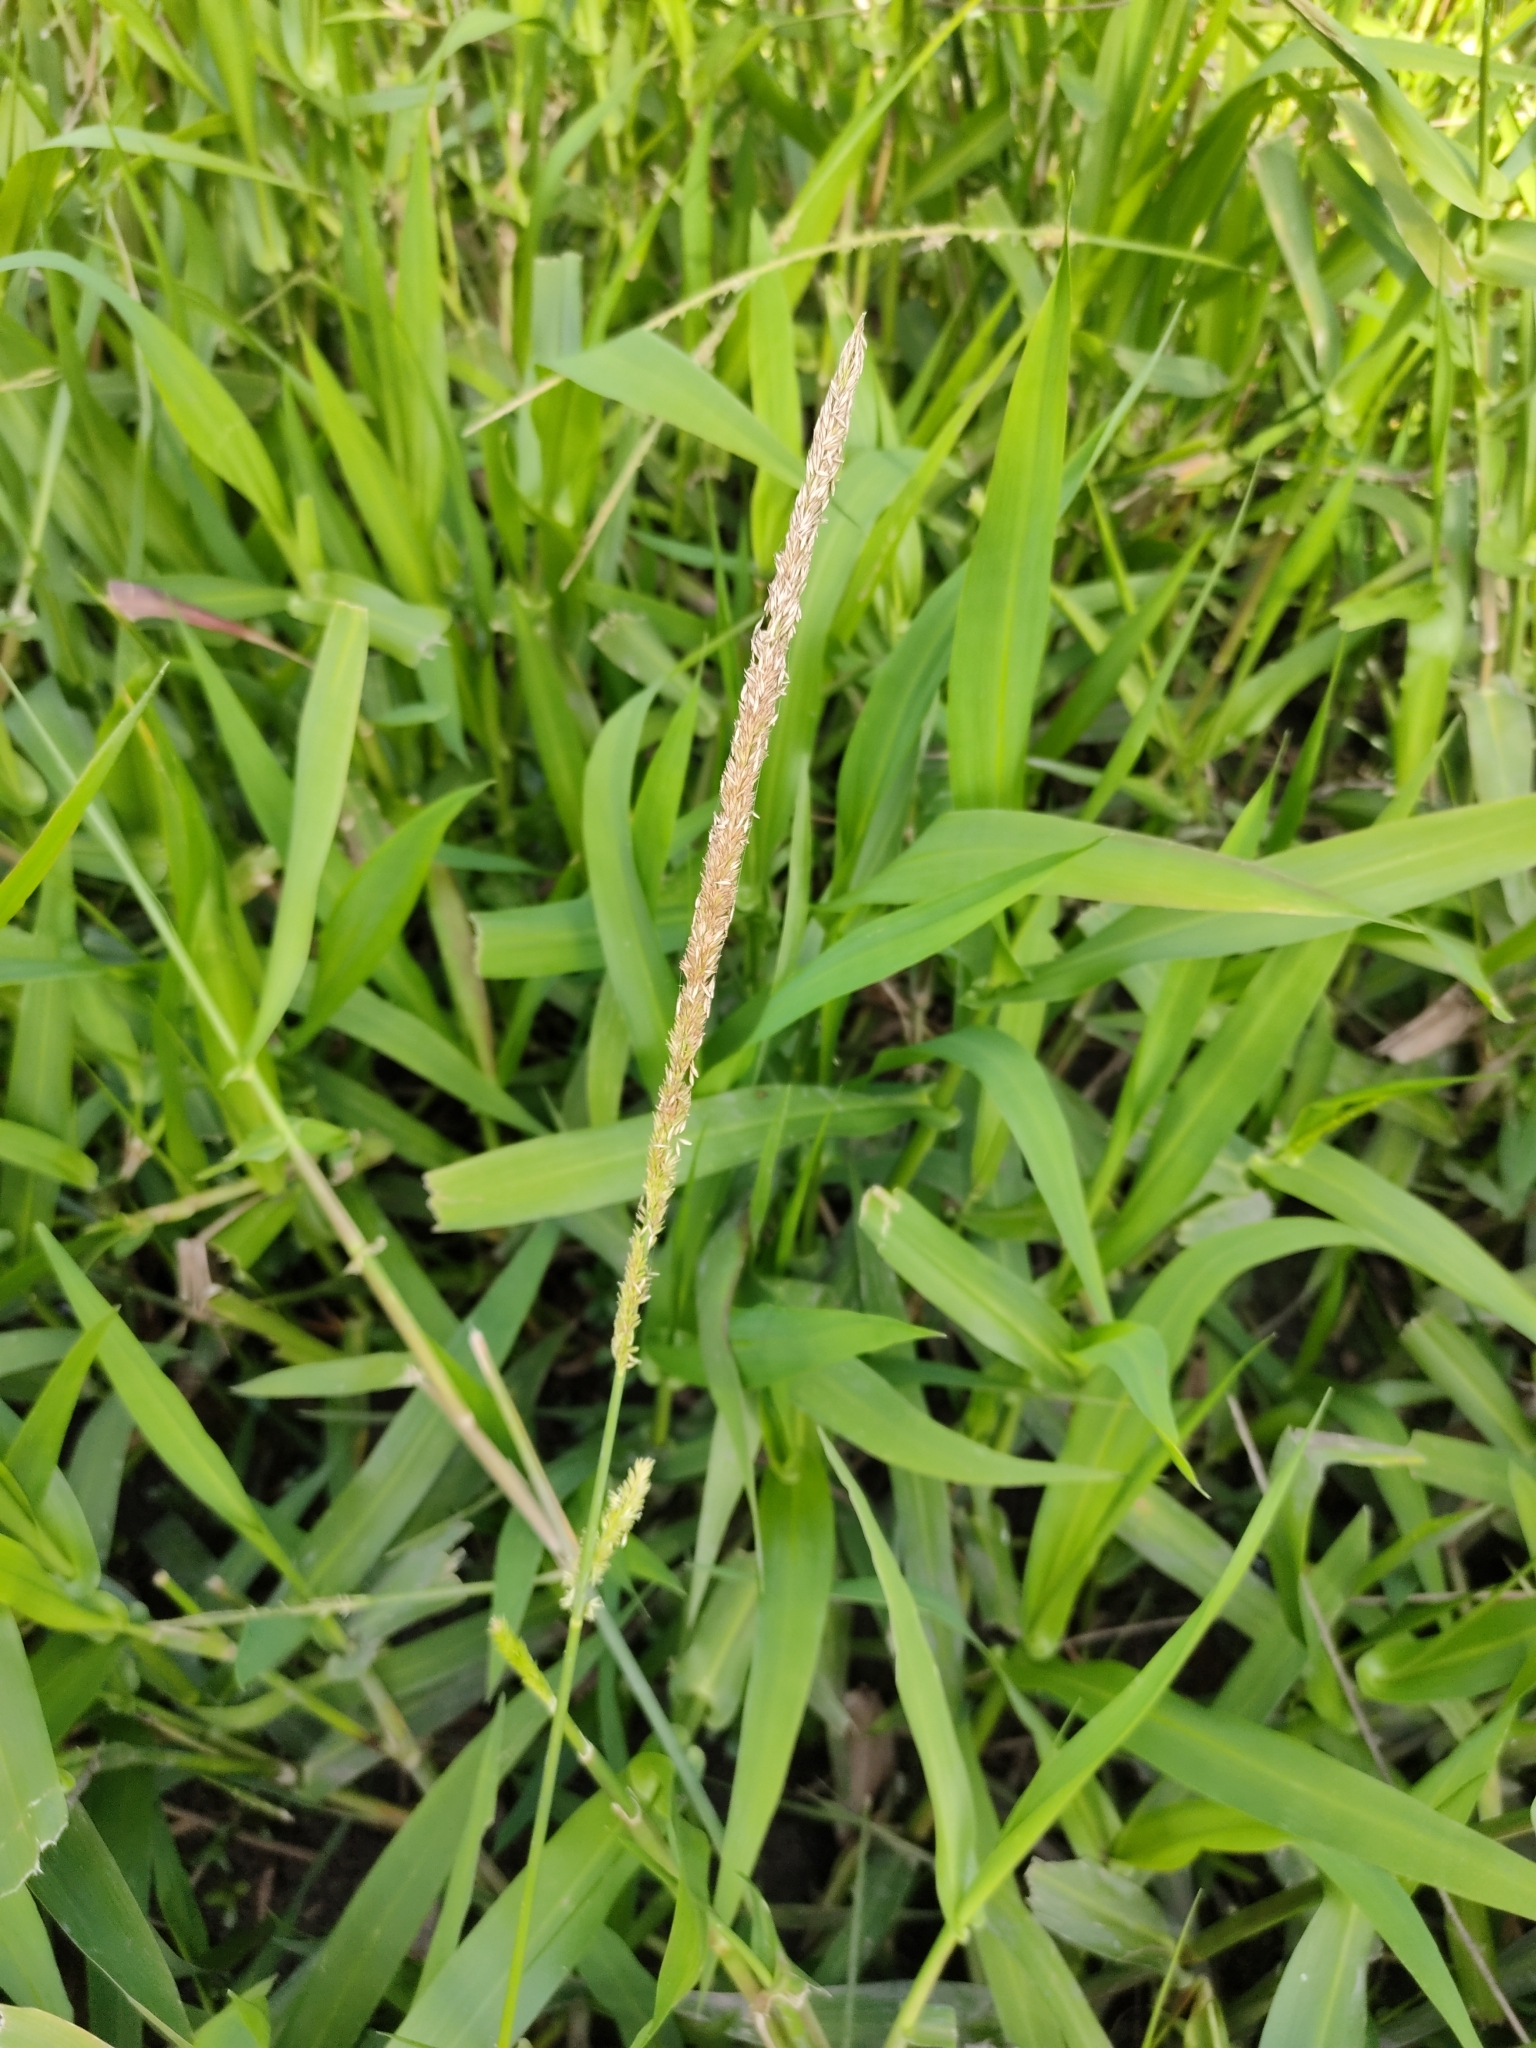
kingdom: Plantae
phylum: Tracheophyta
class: Liliopsida
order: Poales
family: Poaceae
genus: Hymenachne
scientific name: Hymenachne amplexicaulis
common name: Olive hymenachne
